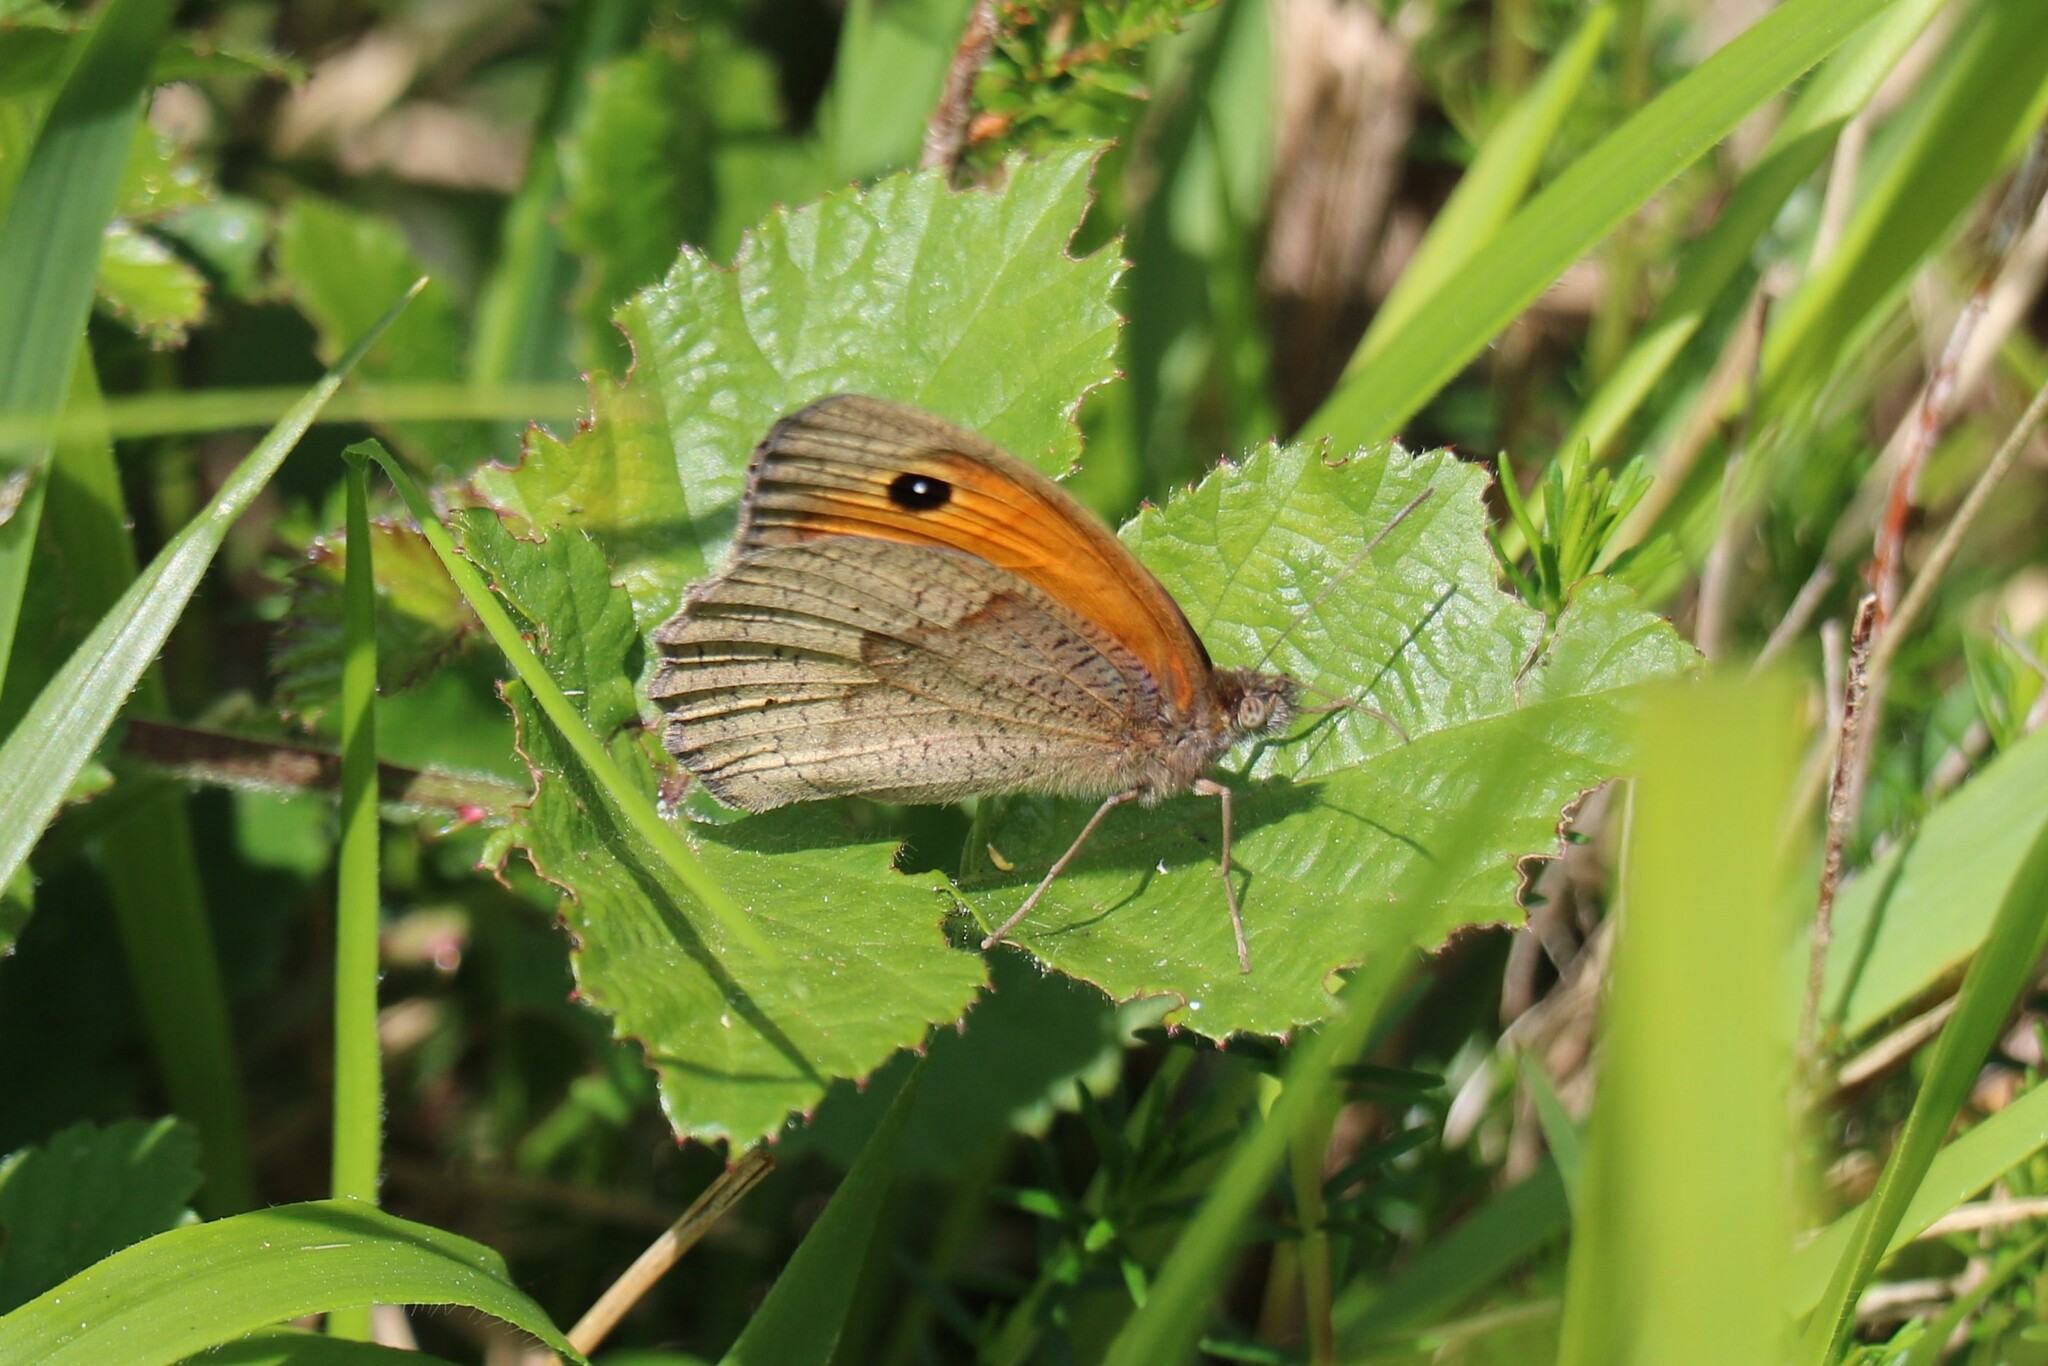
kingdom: Animalia
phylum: Arthropoda
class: Insecta
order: Lepidoptera
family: Nymphalidae
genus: Maniola
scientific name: Maniola jurtina
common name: Meadow brown
